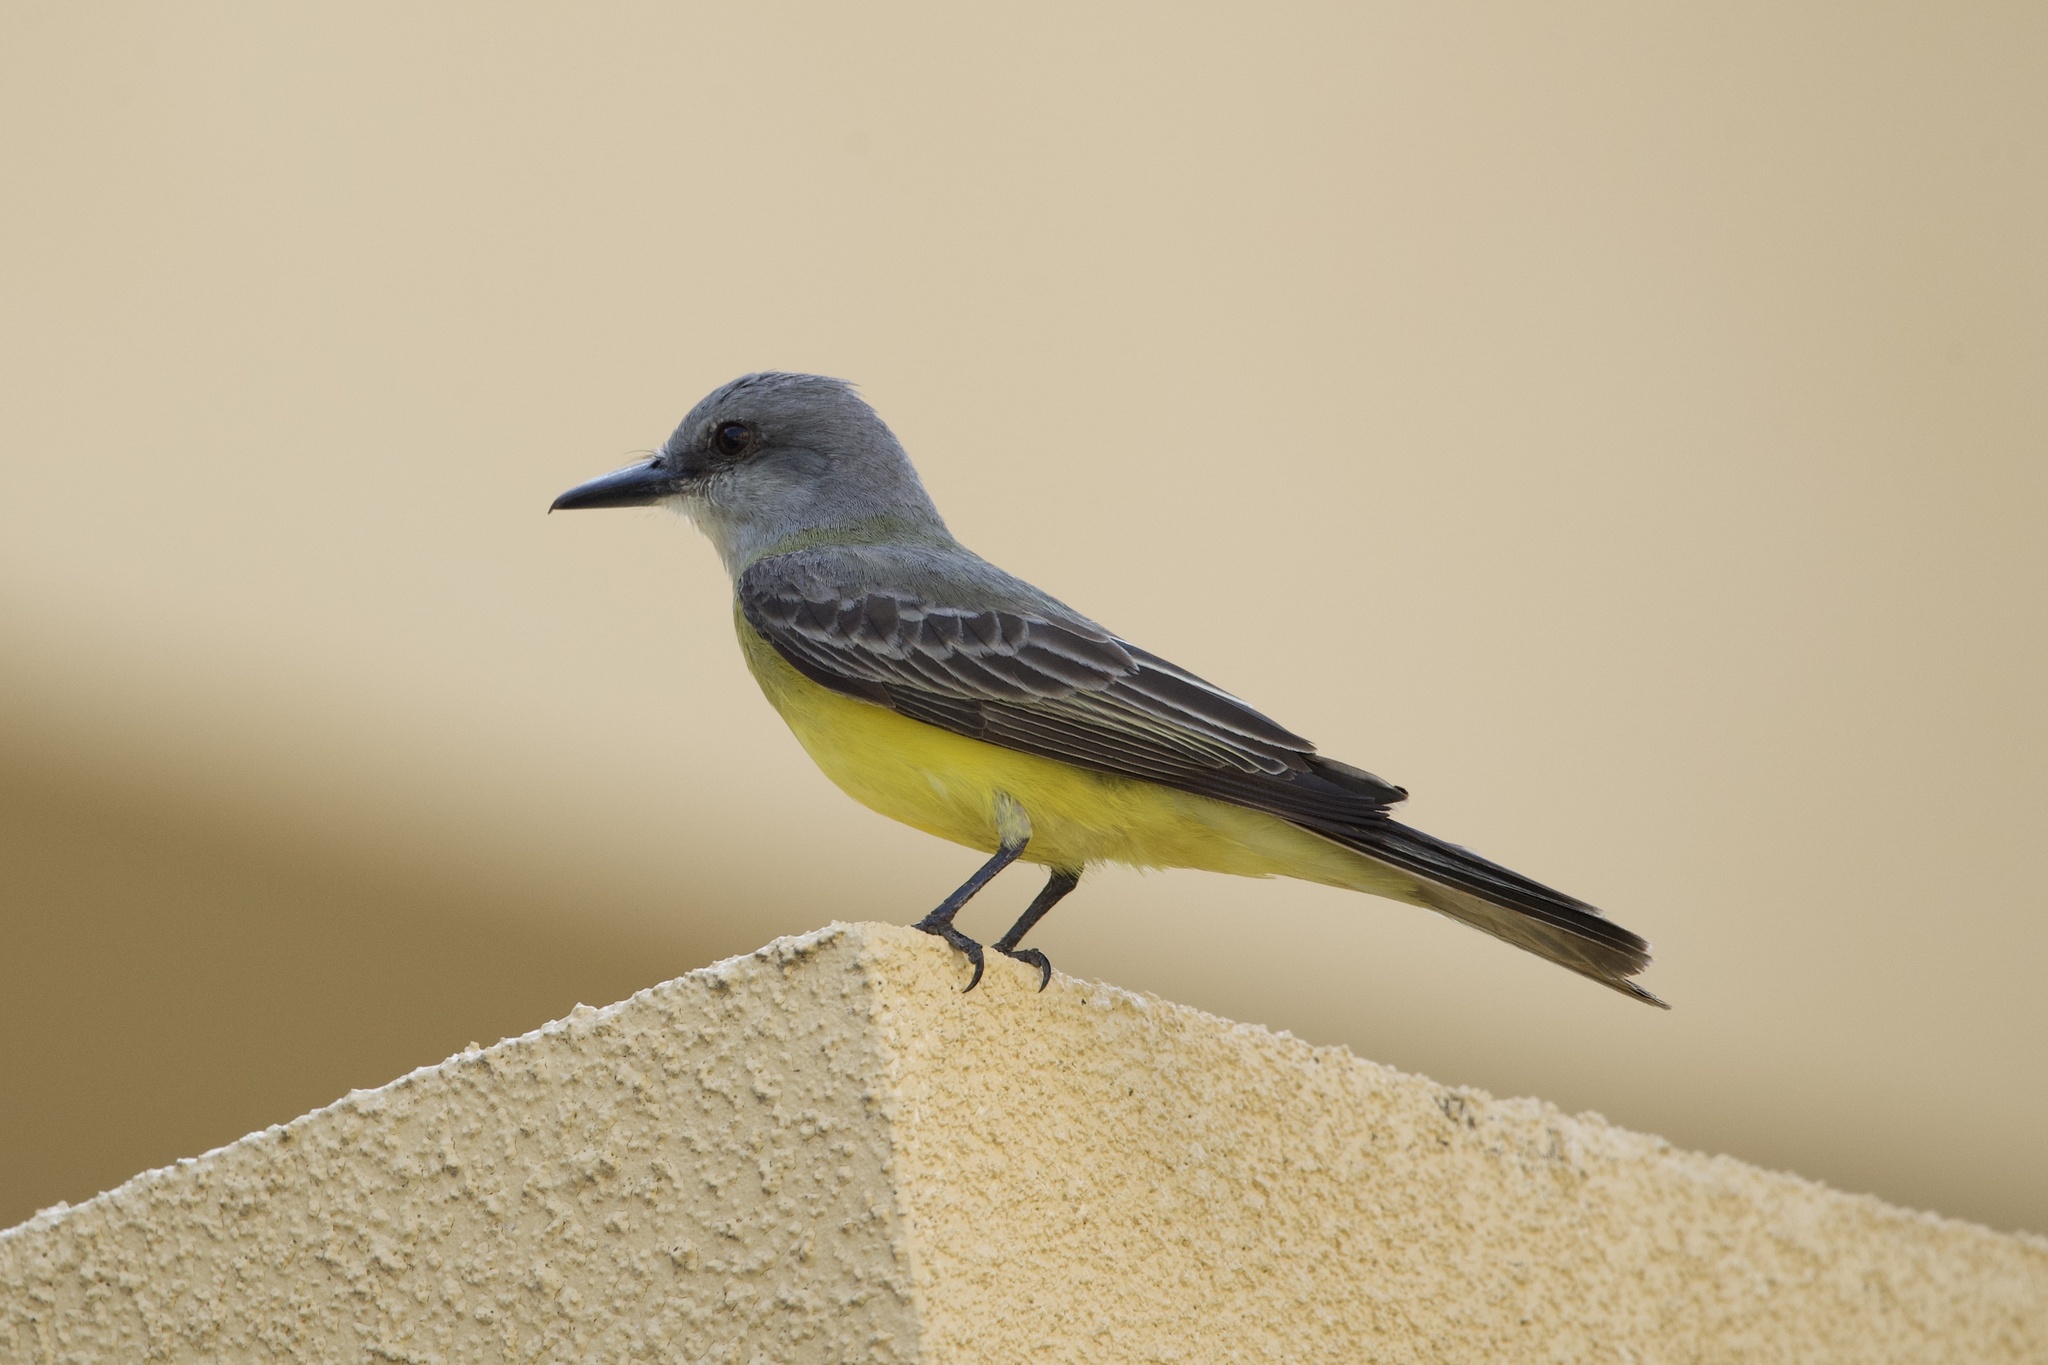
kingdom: Animalia
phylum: Chordata
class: Aves
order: Passeriformes
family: Tyrannidae
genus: Tyrannus
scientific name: Tyrannus melancholicus
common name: Tropical kingbird
